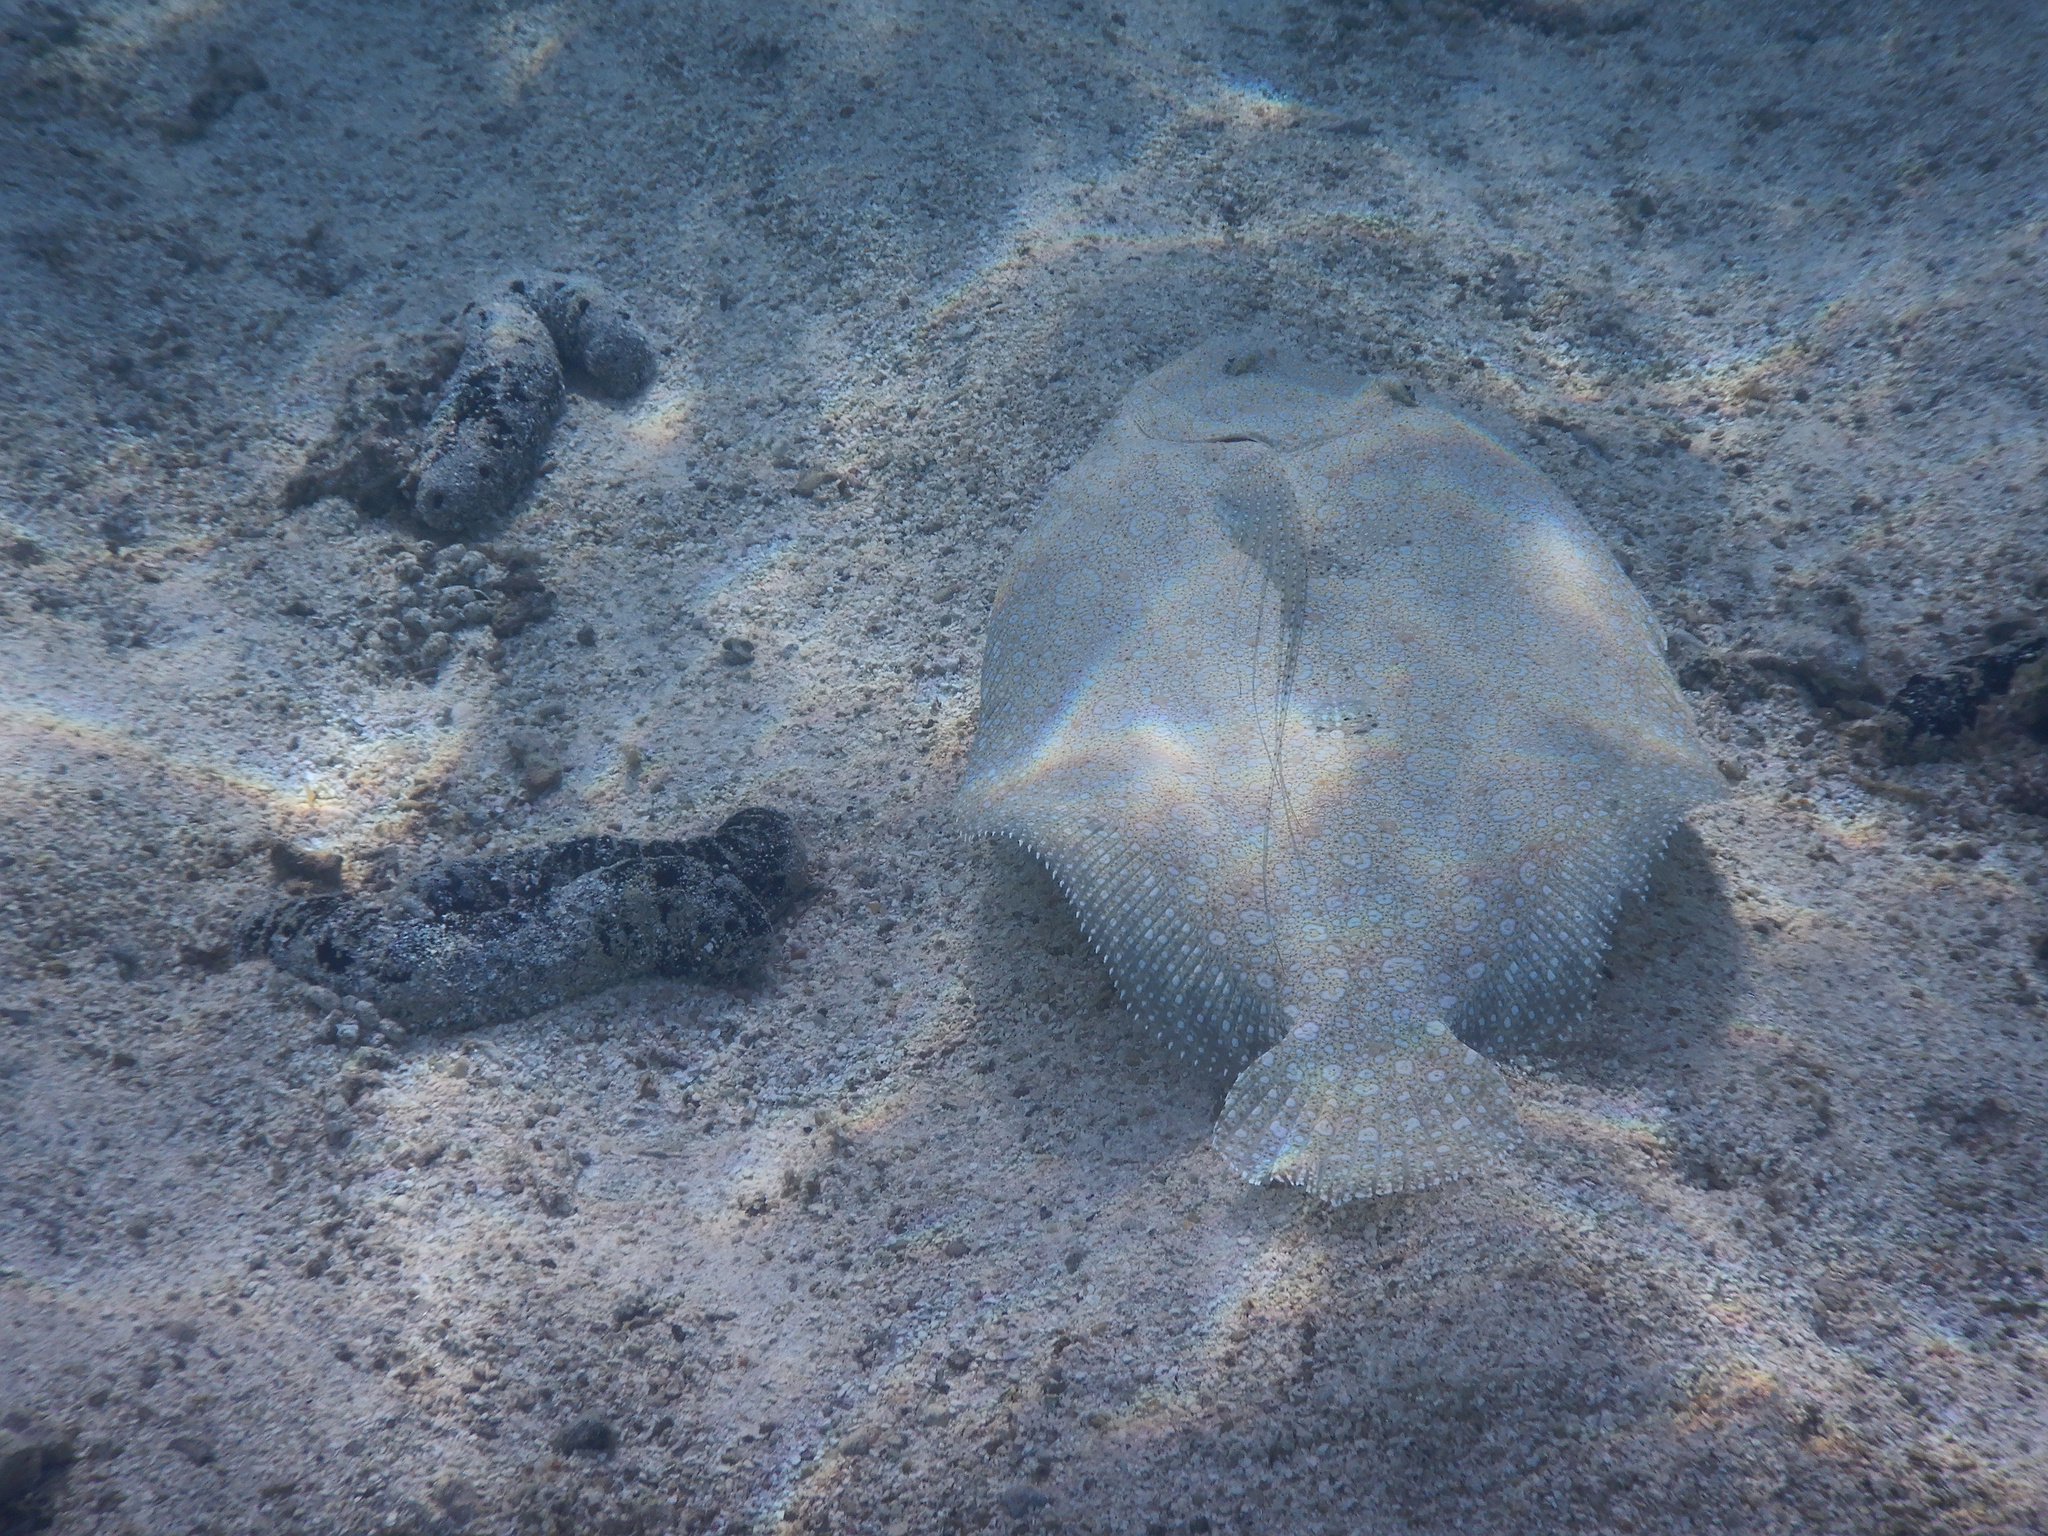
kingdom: Animalia
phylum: Chordata
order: Pleuronectiformes
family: Bothidae
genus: Bothus
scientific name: Bothus mancus
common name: Flowery flounder
